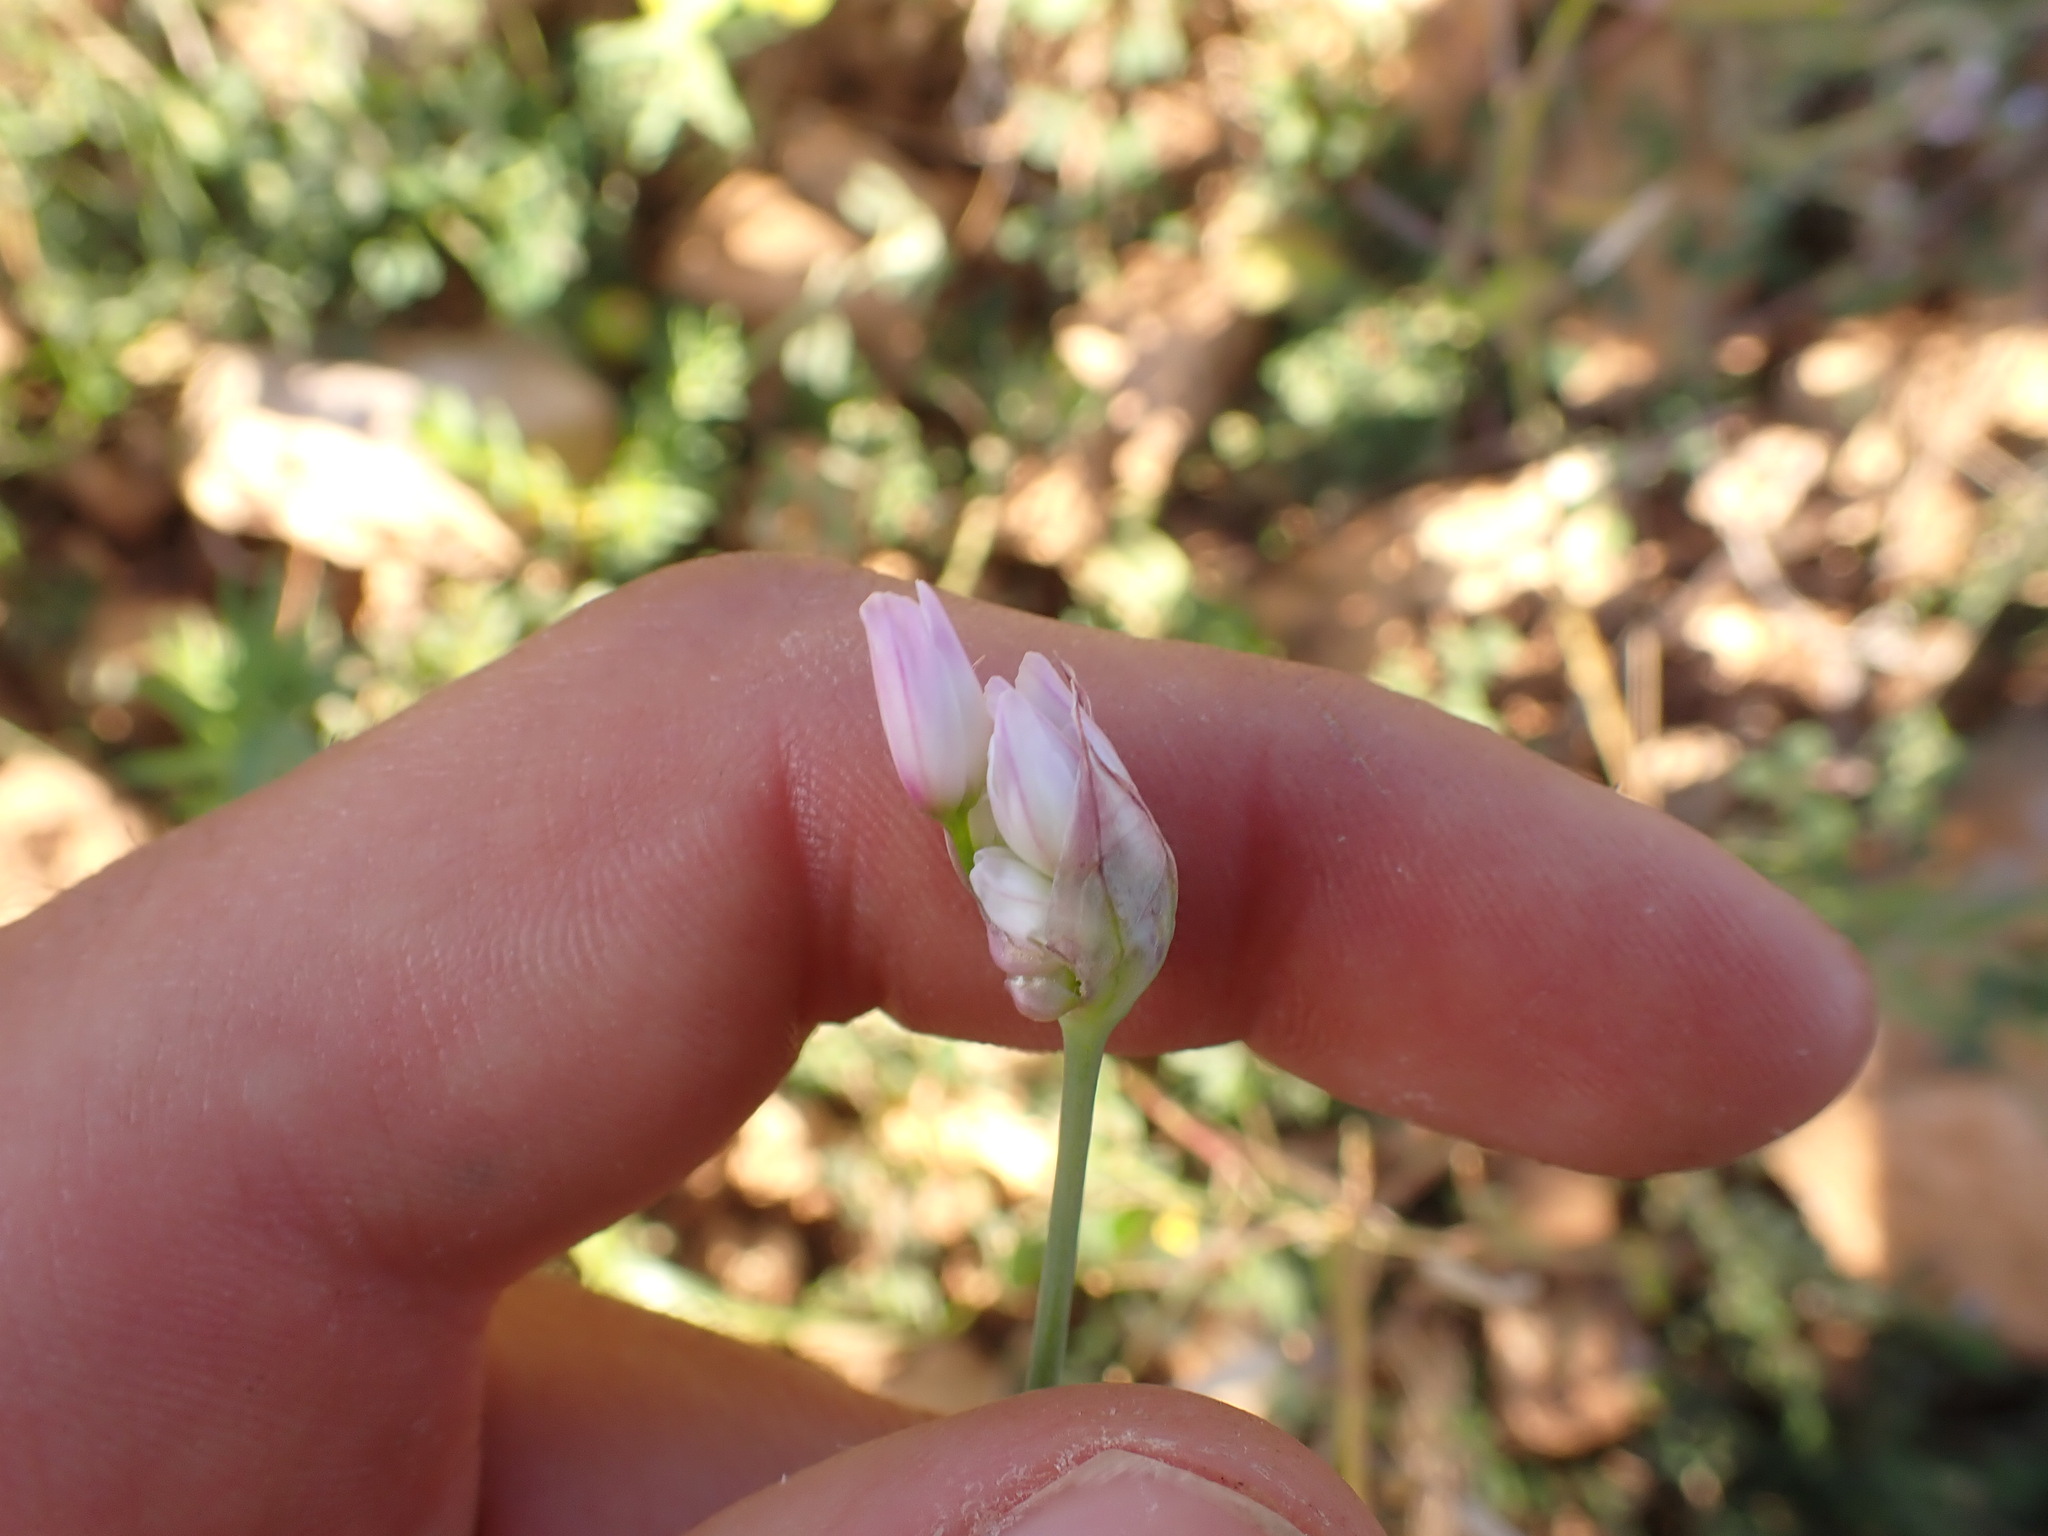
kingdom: Plantae
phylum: Tracheophyta
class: Liliopsida
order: Asparagales
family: Amaryllidaceae
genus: Allium
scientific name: Allium roseum
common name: Rosy garlic
